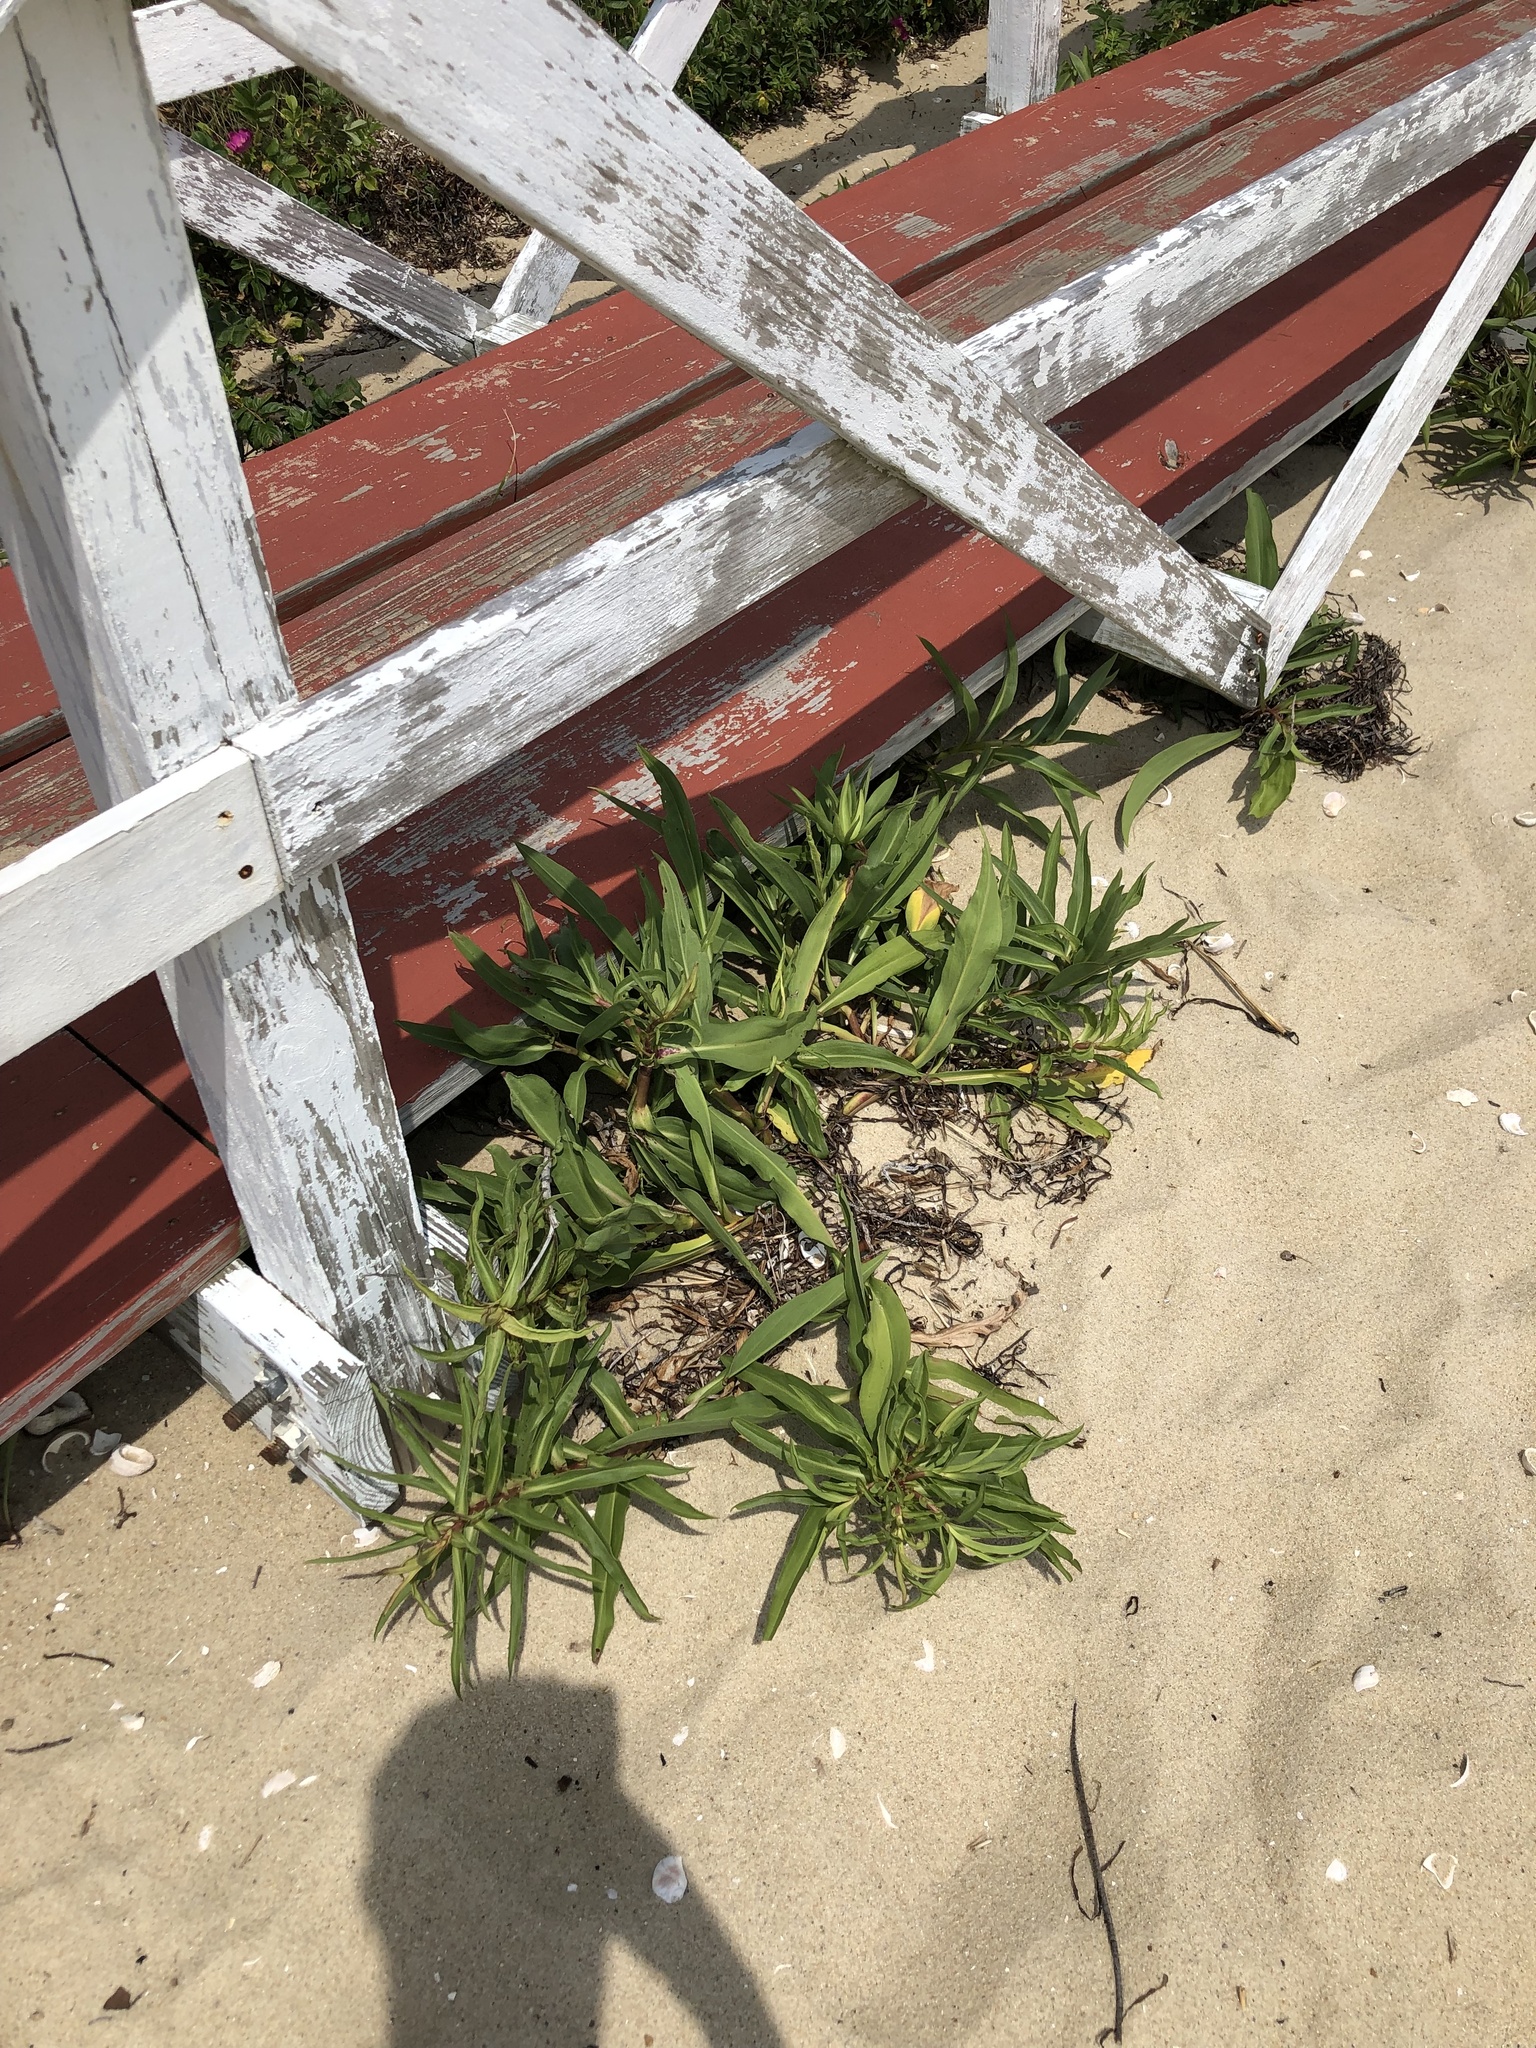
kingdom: Plantae
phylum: Tracheophyta
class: Magnoliopsida
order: Asterales
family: Asteraceae
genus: Solidago
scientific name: Solidago sempervirens
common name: Salt-marsh goldenrod
